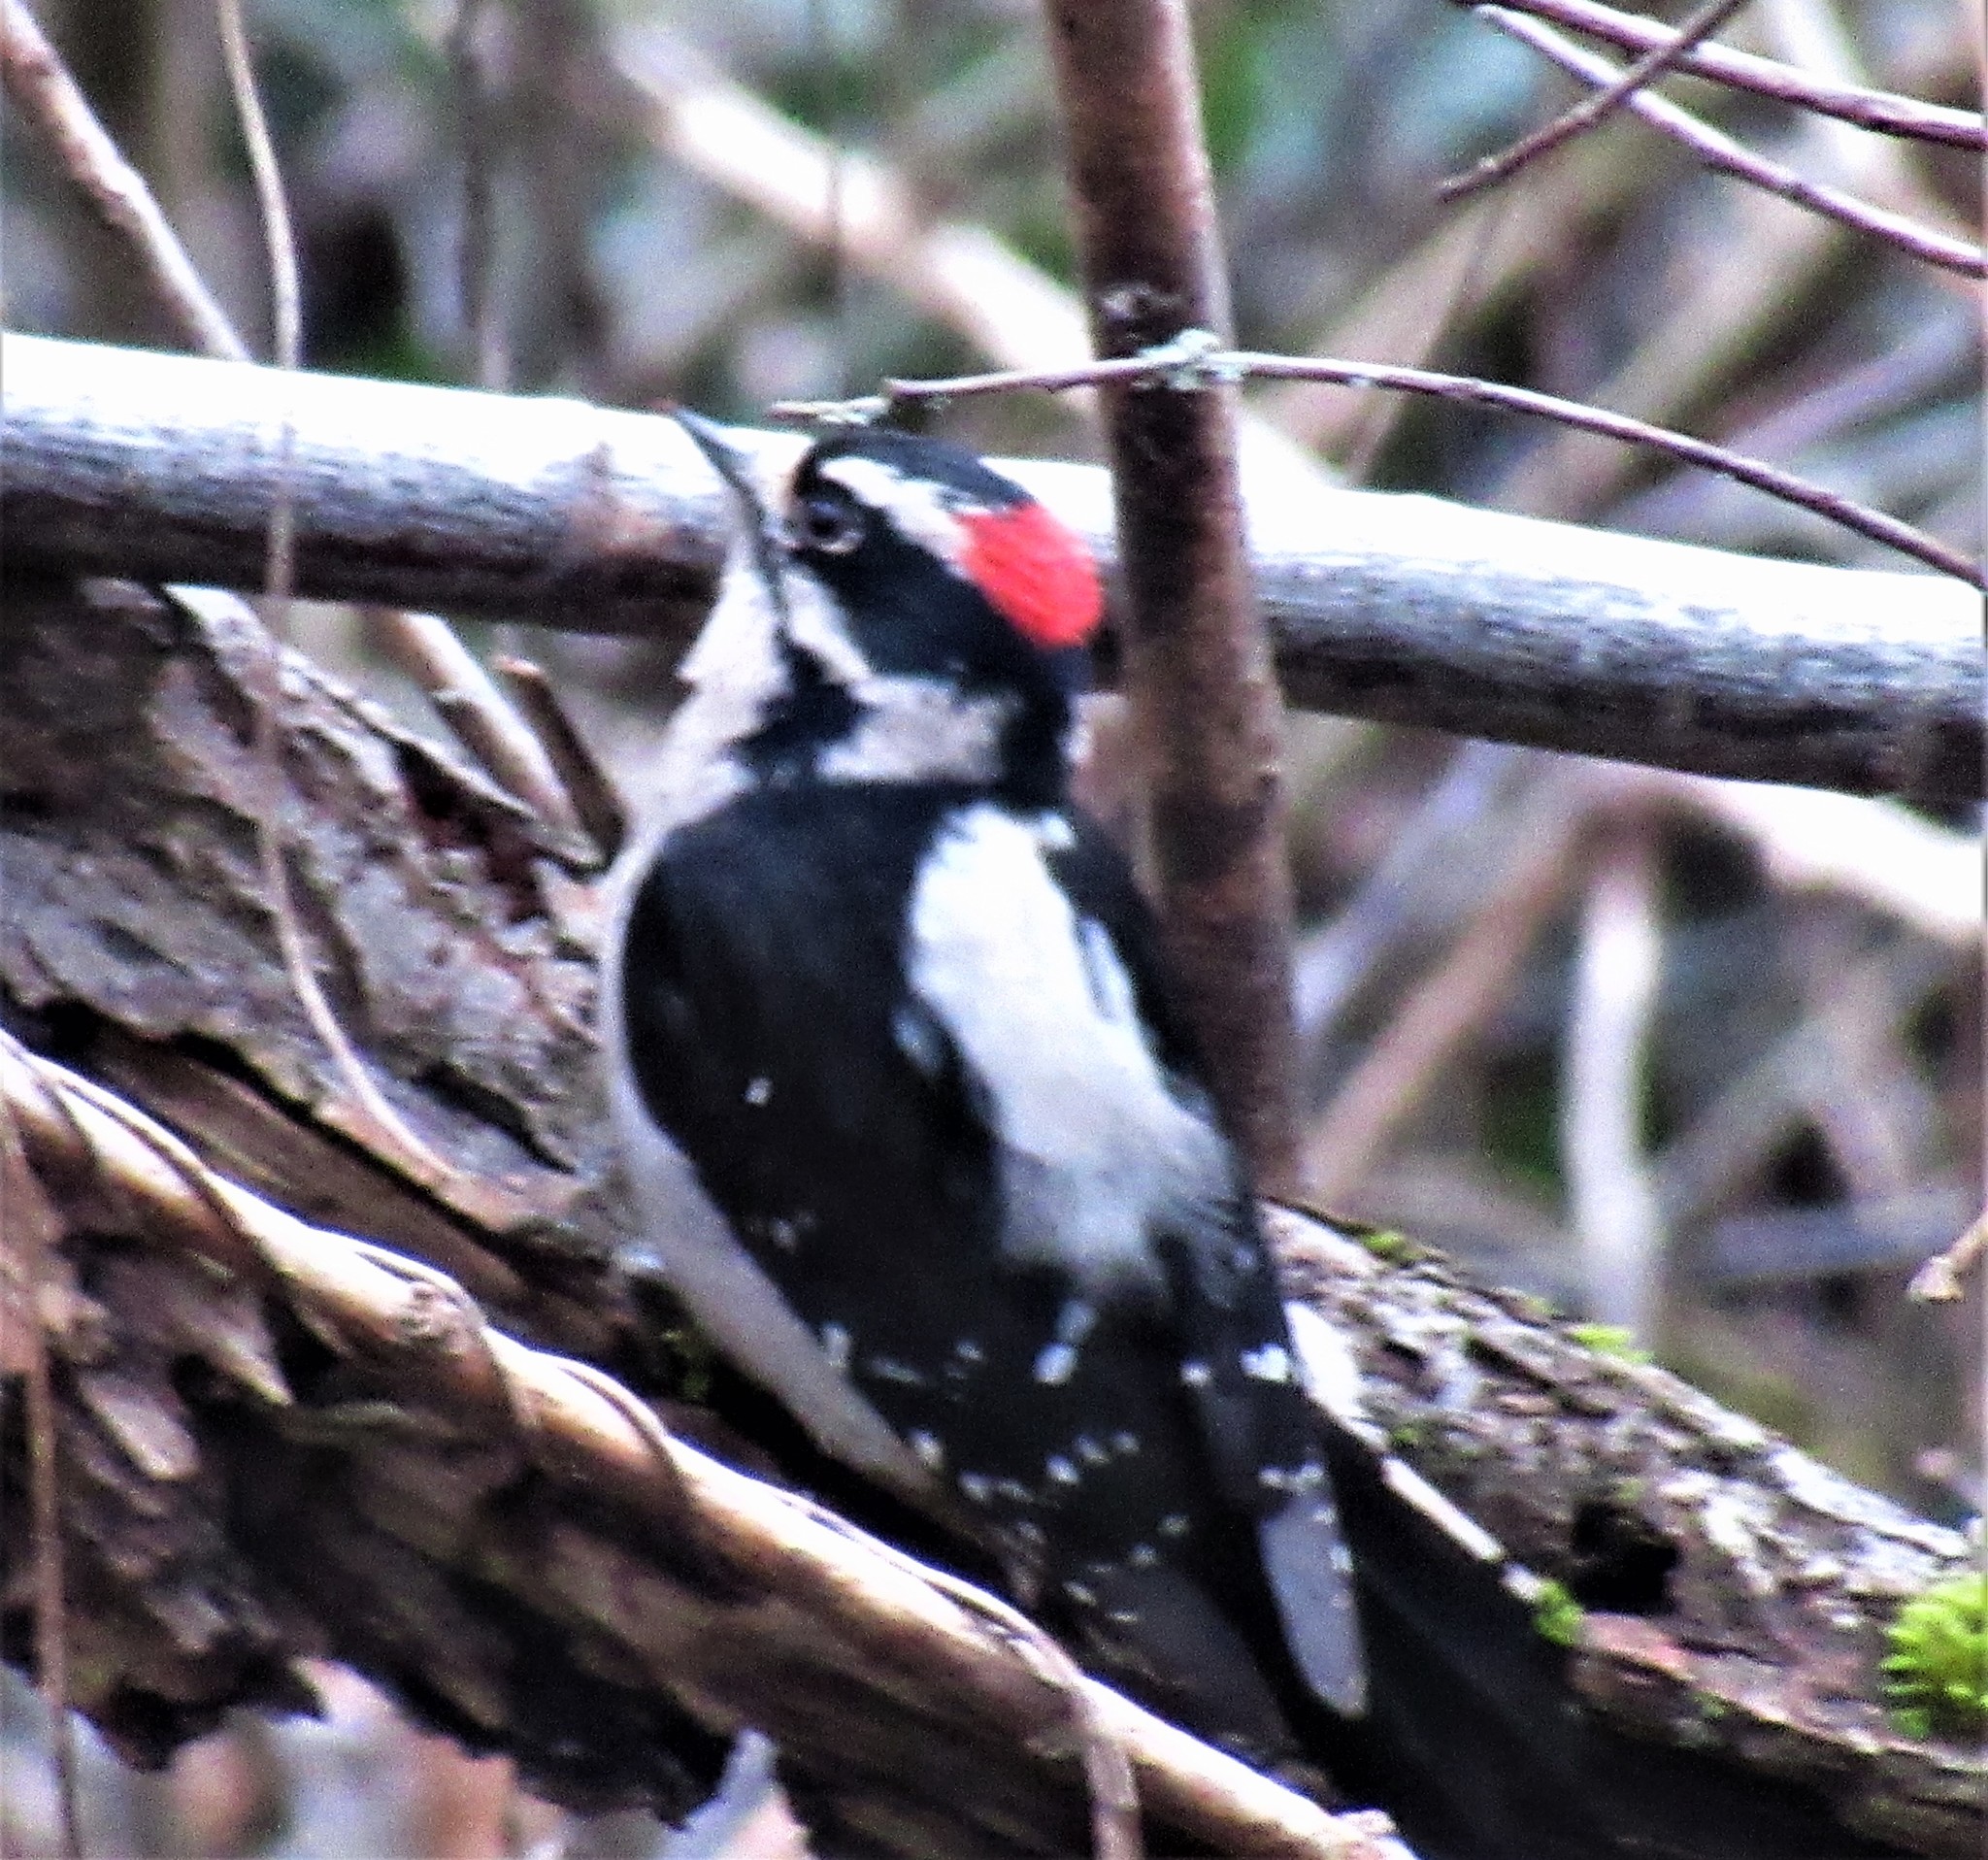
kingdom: Animalia
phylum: Chordata
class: Aves
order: Piciformes
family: Picidae
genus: Dryobates
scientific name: Dryobates pubescens
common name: Downy woodpecker
